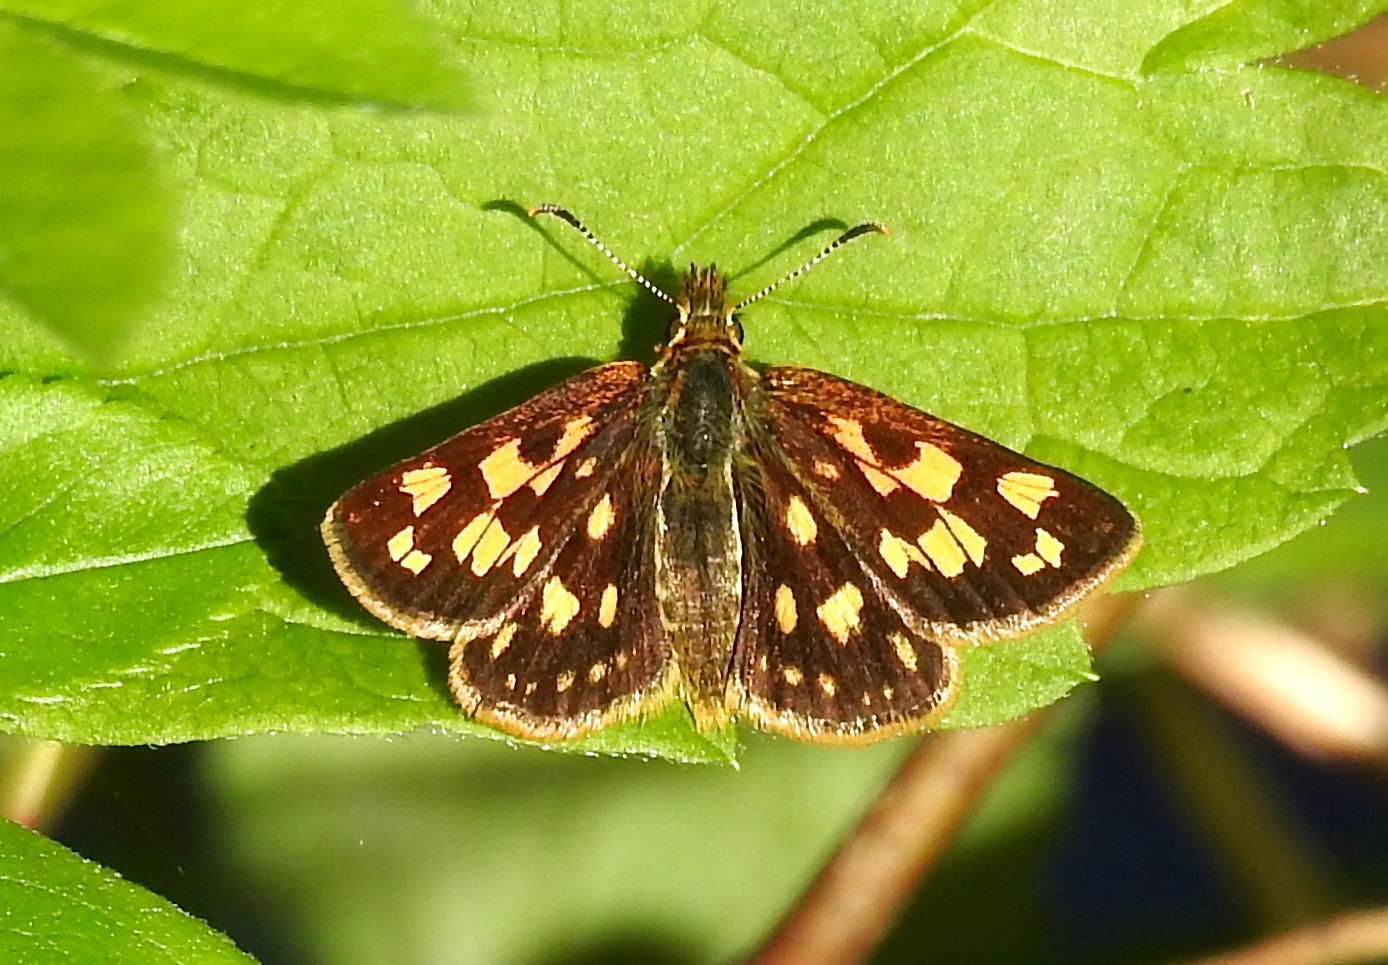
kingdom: Animalia
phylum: Arthropoda
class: Insecta
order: Lepidoptera
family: Hesperiidae
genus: Carterocephalus
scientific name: Carterocephalus mandan
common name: Arctic skipperling
